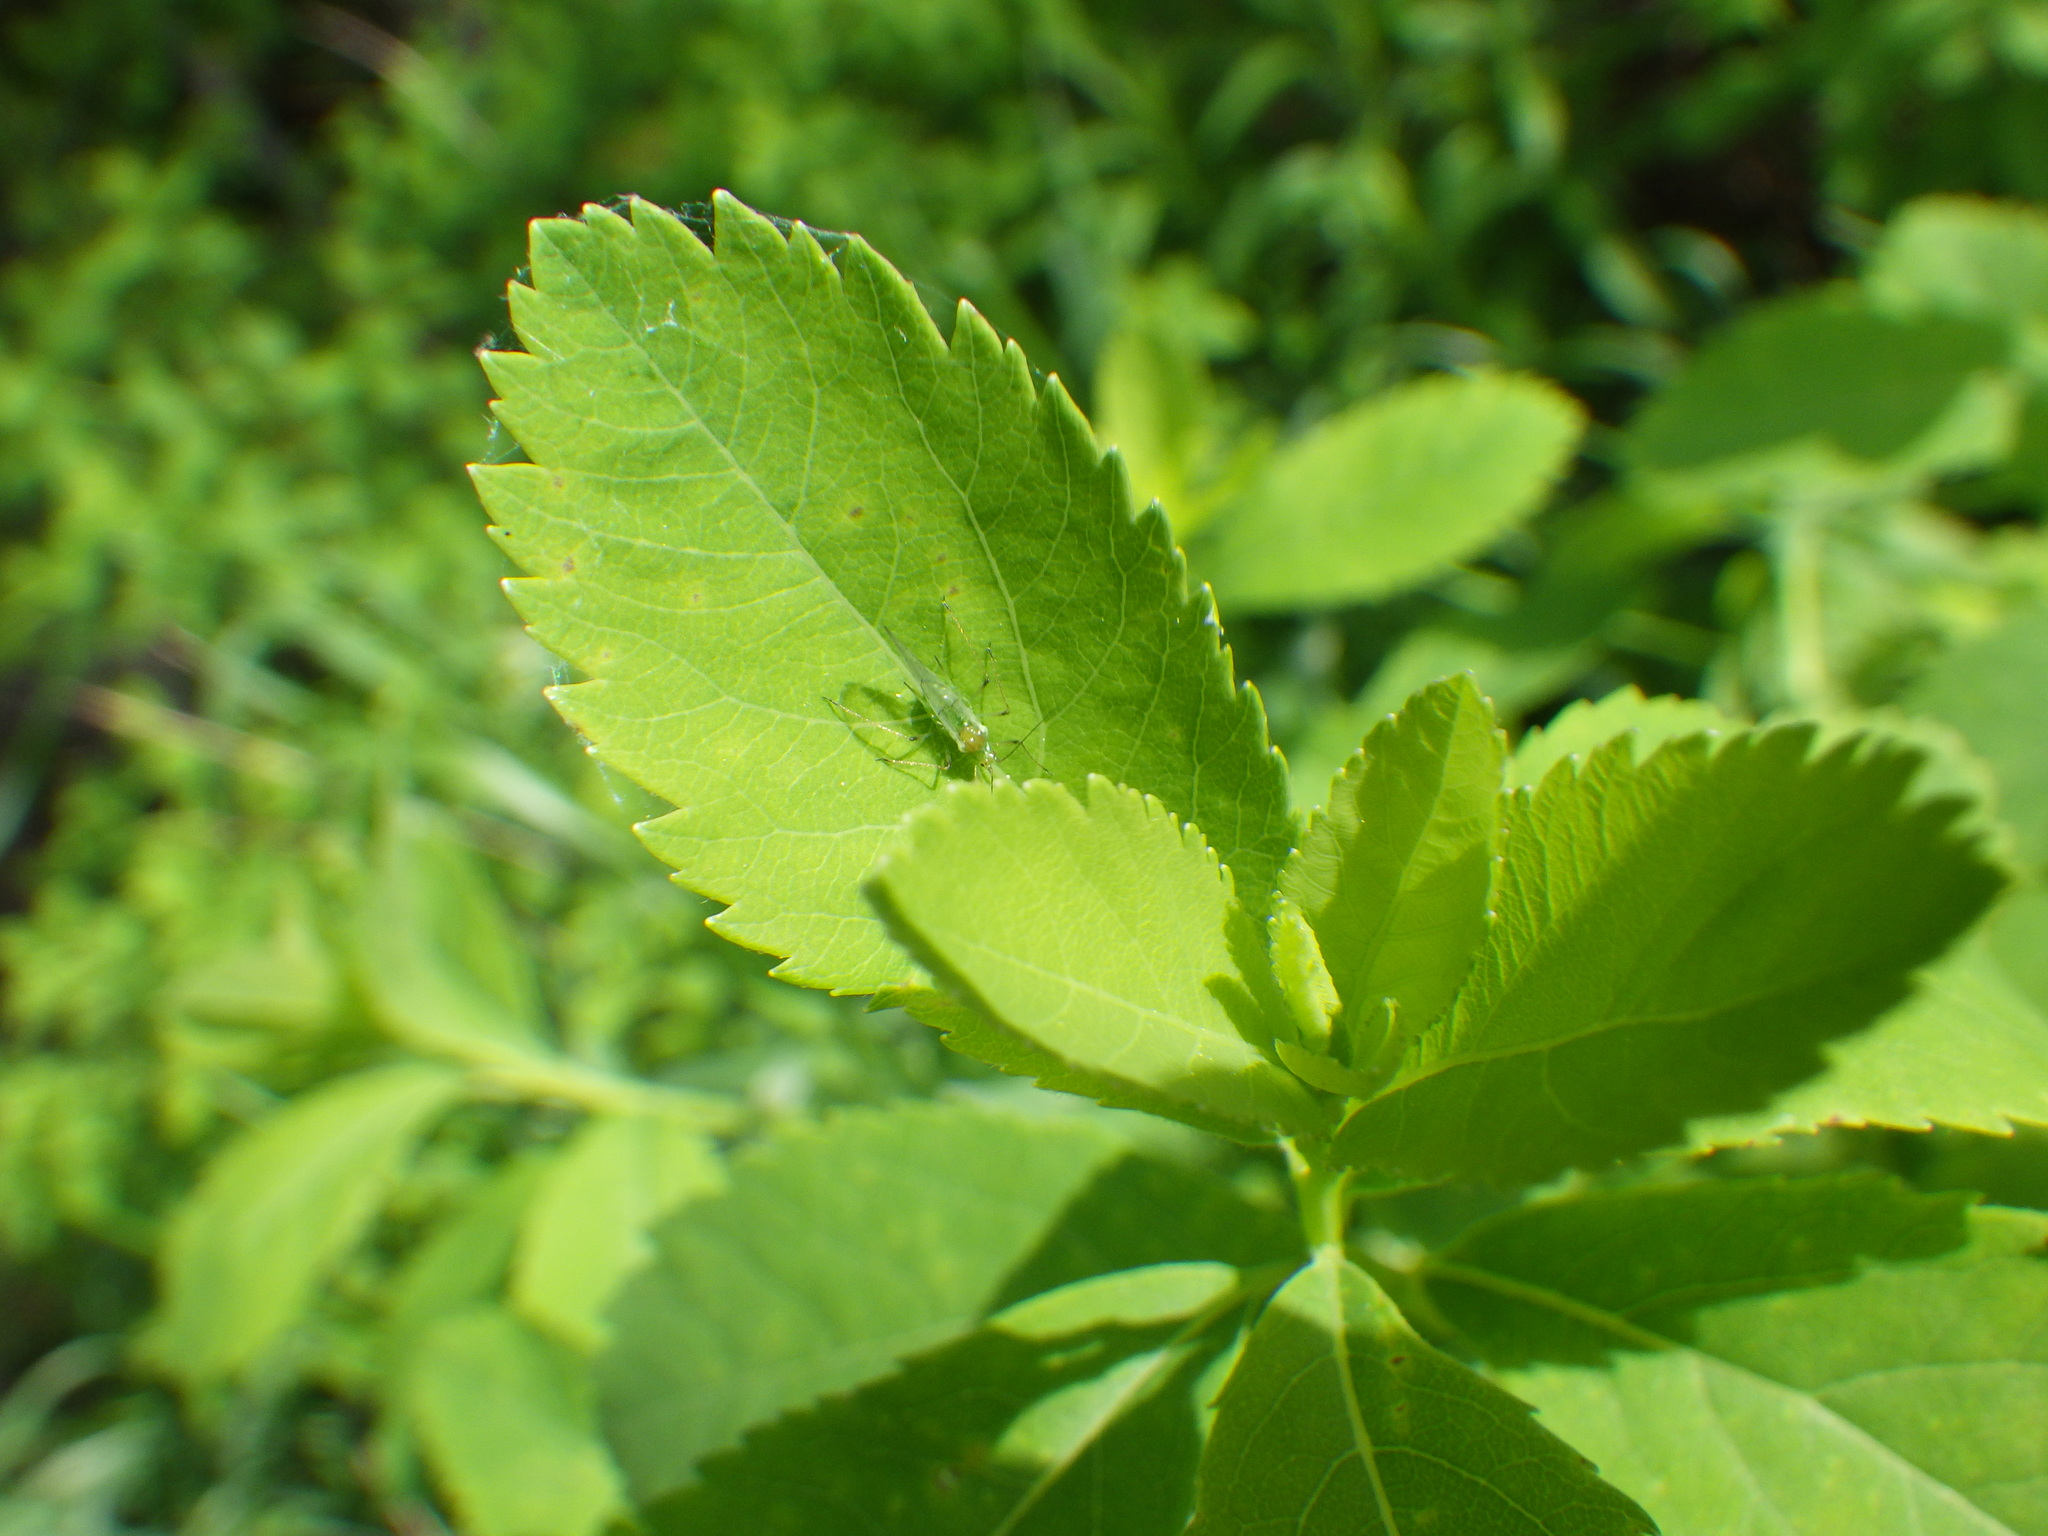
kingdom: Plantae
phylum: Tracheophyta
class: Magnoliopsida
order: Rosales
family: Rosaceae
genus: Spiraea
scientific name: Spiraea alba
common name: Pale bridewort
